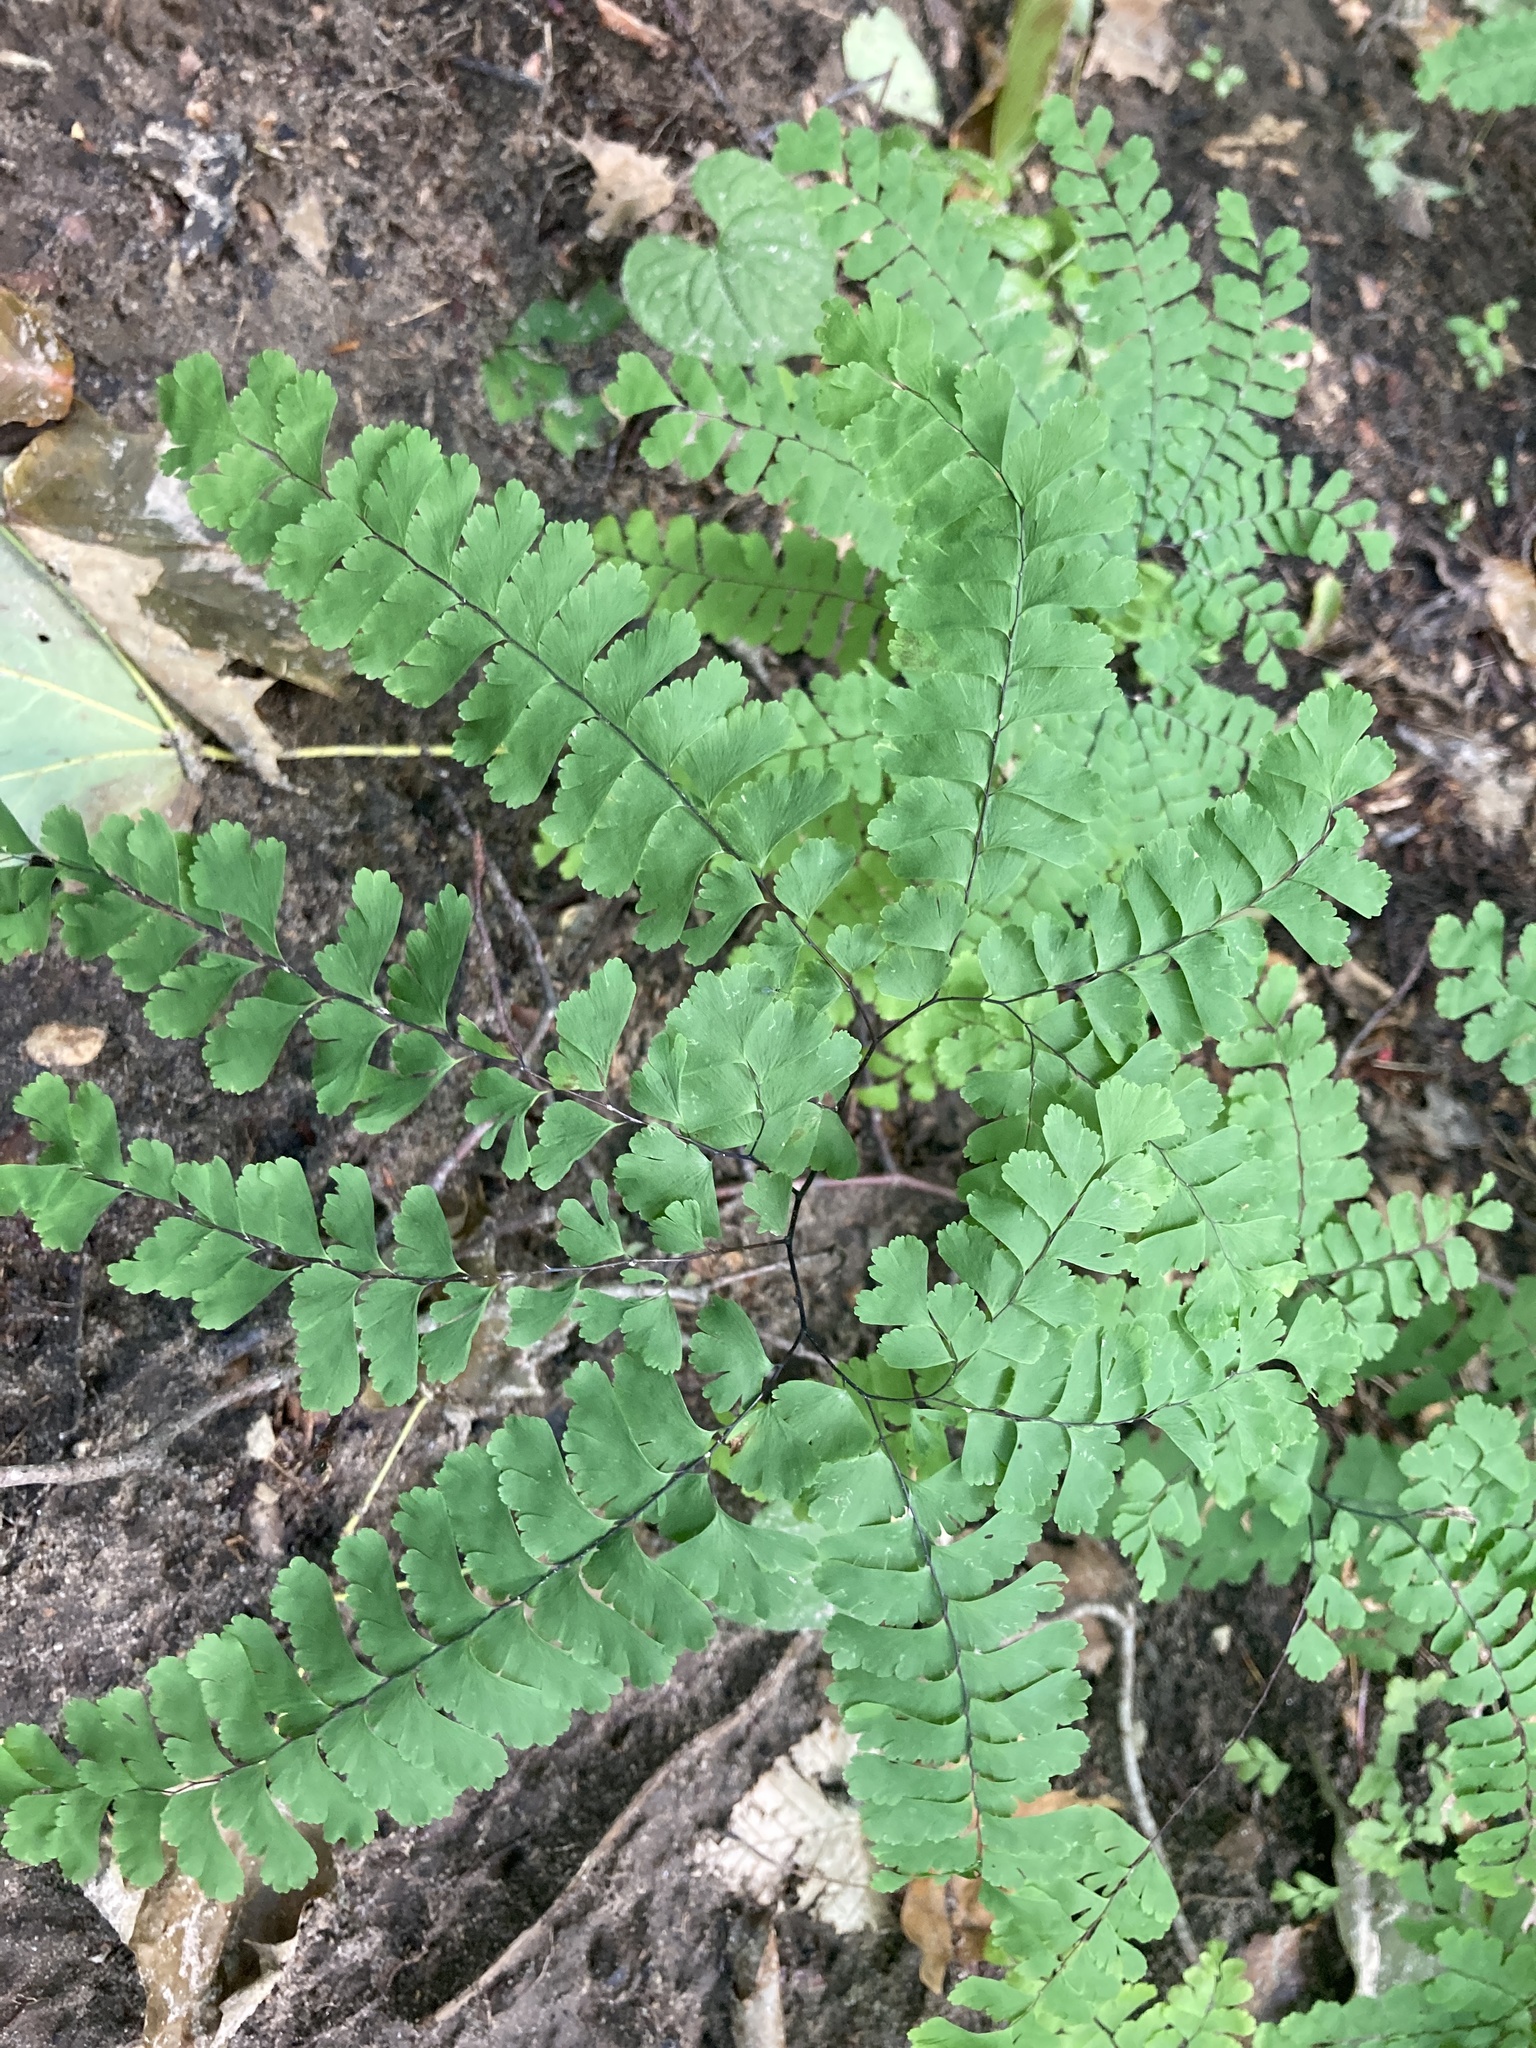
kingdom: Plantae
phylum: Tracheophyta
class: Polypodiopsida
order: Polypodiales
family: Pteridaceae
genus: Adiantum
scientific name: Adiantum pedatum
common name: Five-finger fern
